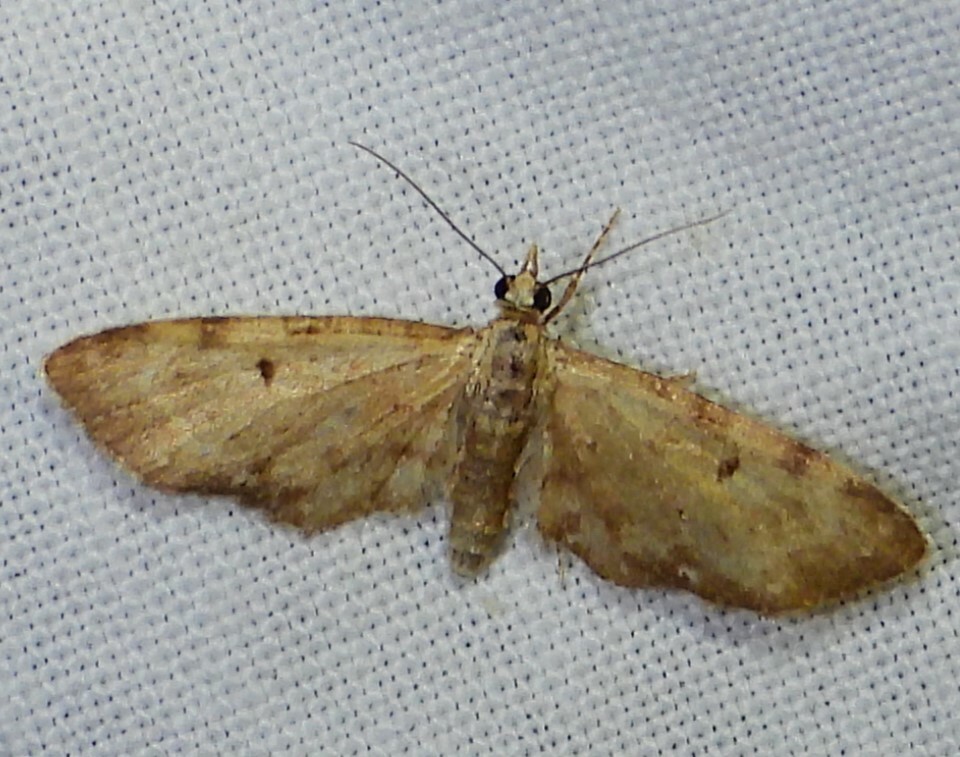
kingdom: Animalia
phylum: Arthropoda
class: Insecta
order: Lepidoptera
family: Geometridae
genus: Eupithecia
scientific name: Eupithecia miserulata
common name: Common eupithecia
